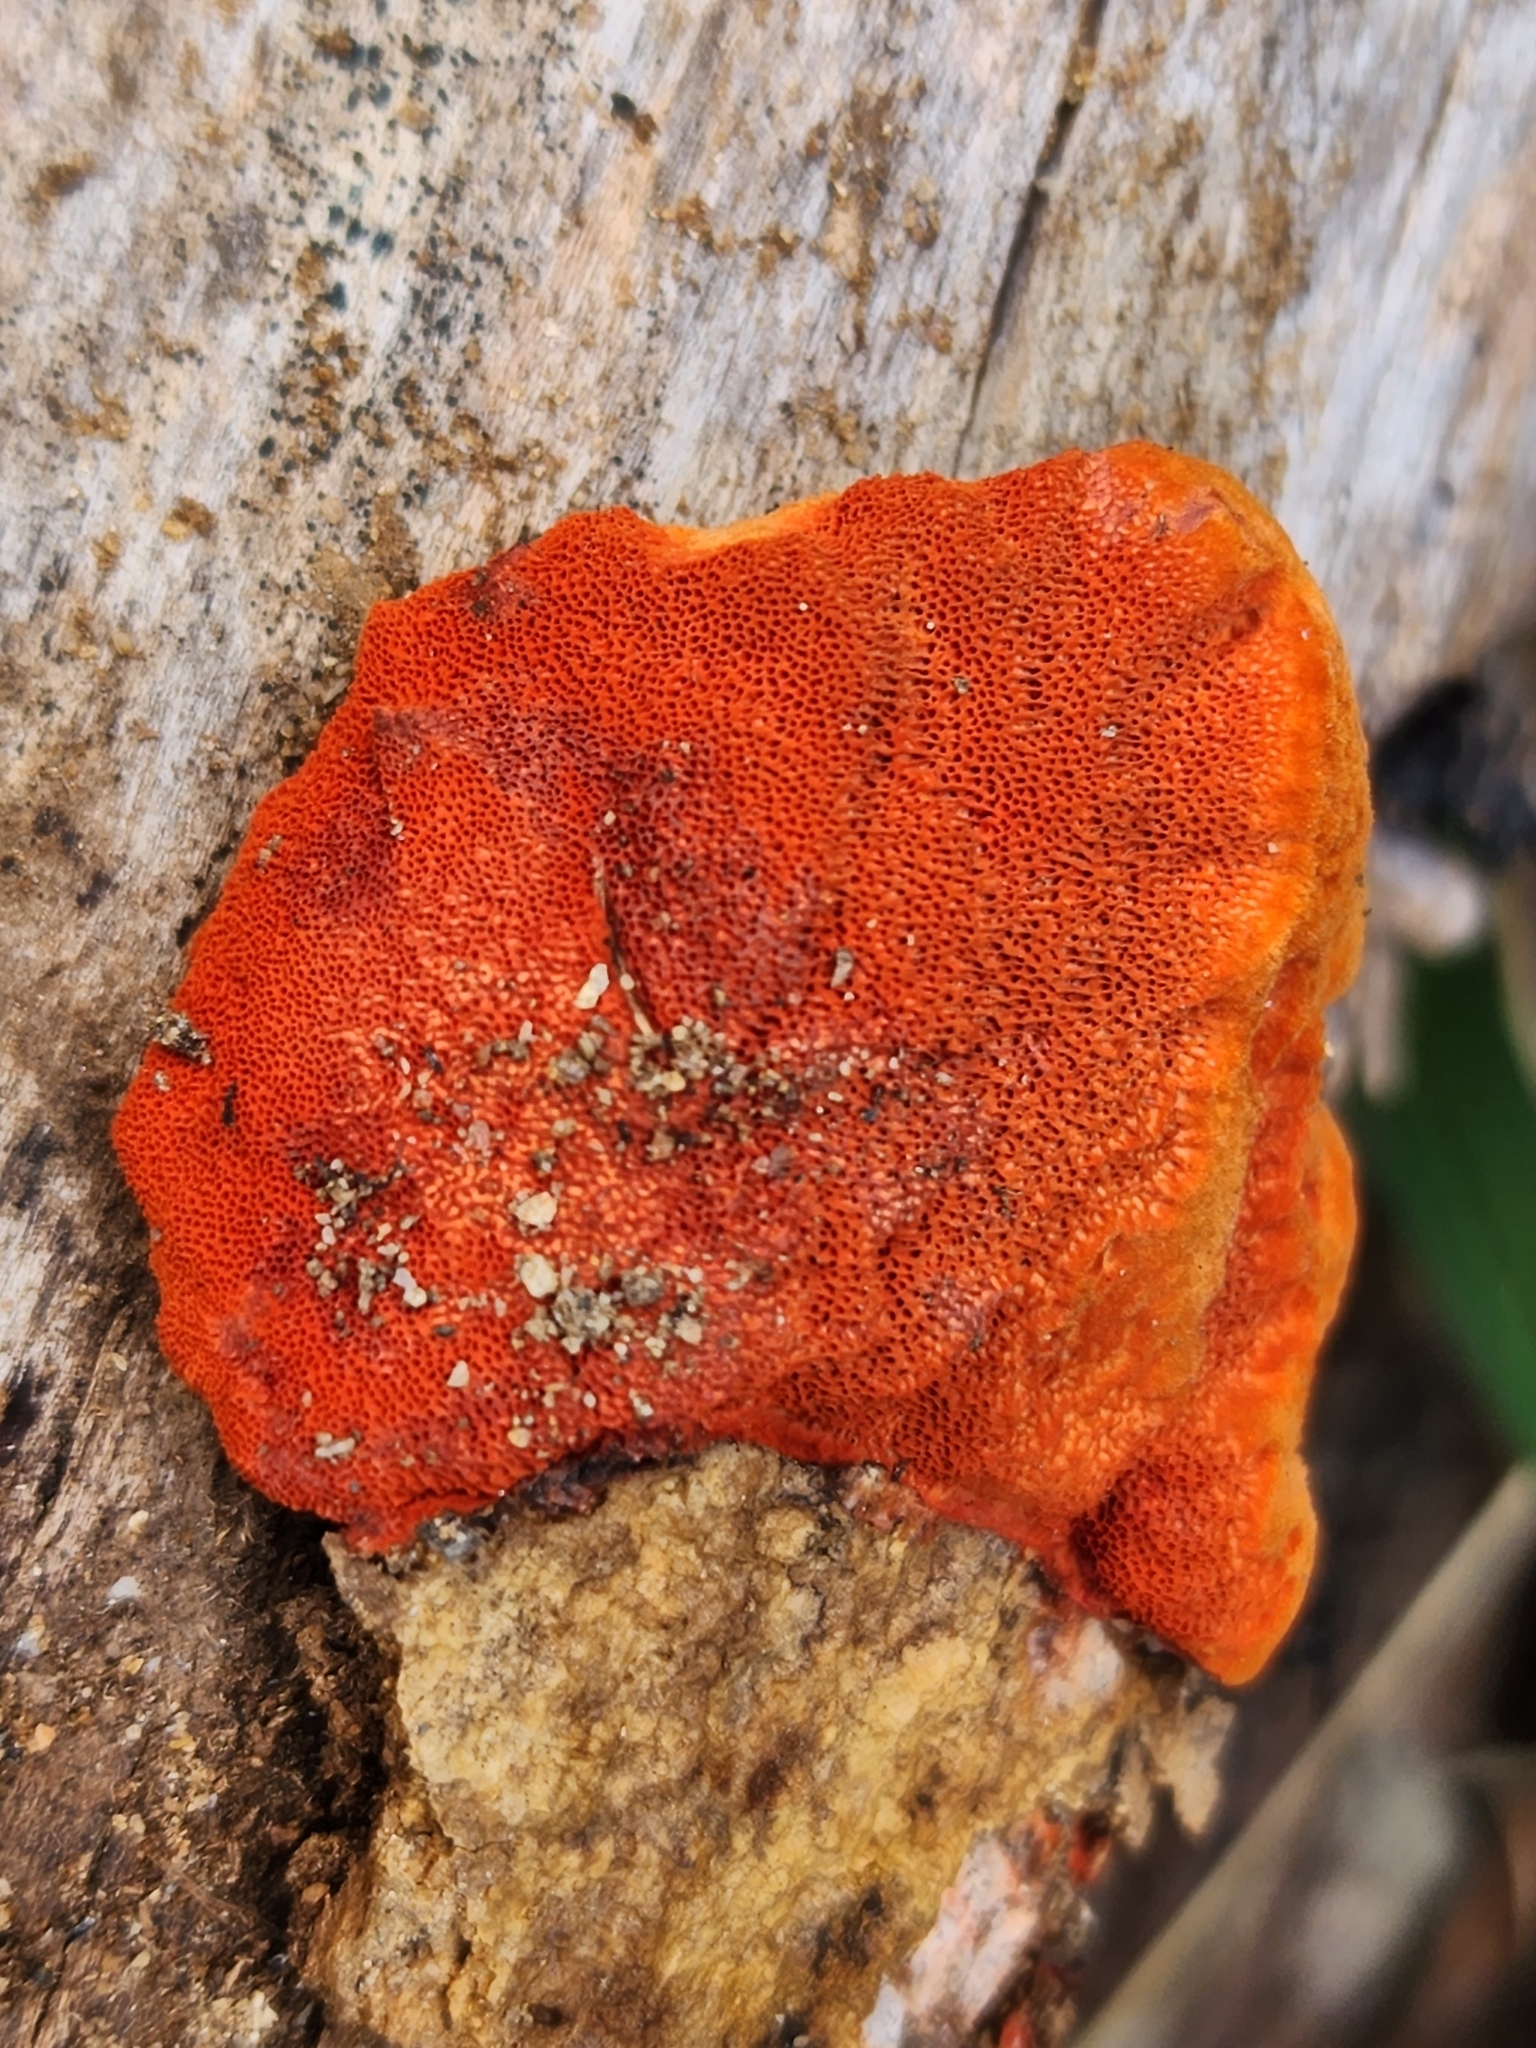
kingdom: Fungi
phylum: Basidiomycota
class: Agaricomycetes
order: Polyporales
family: Polyporaceae
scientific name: Polyporaceae
